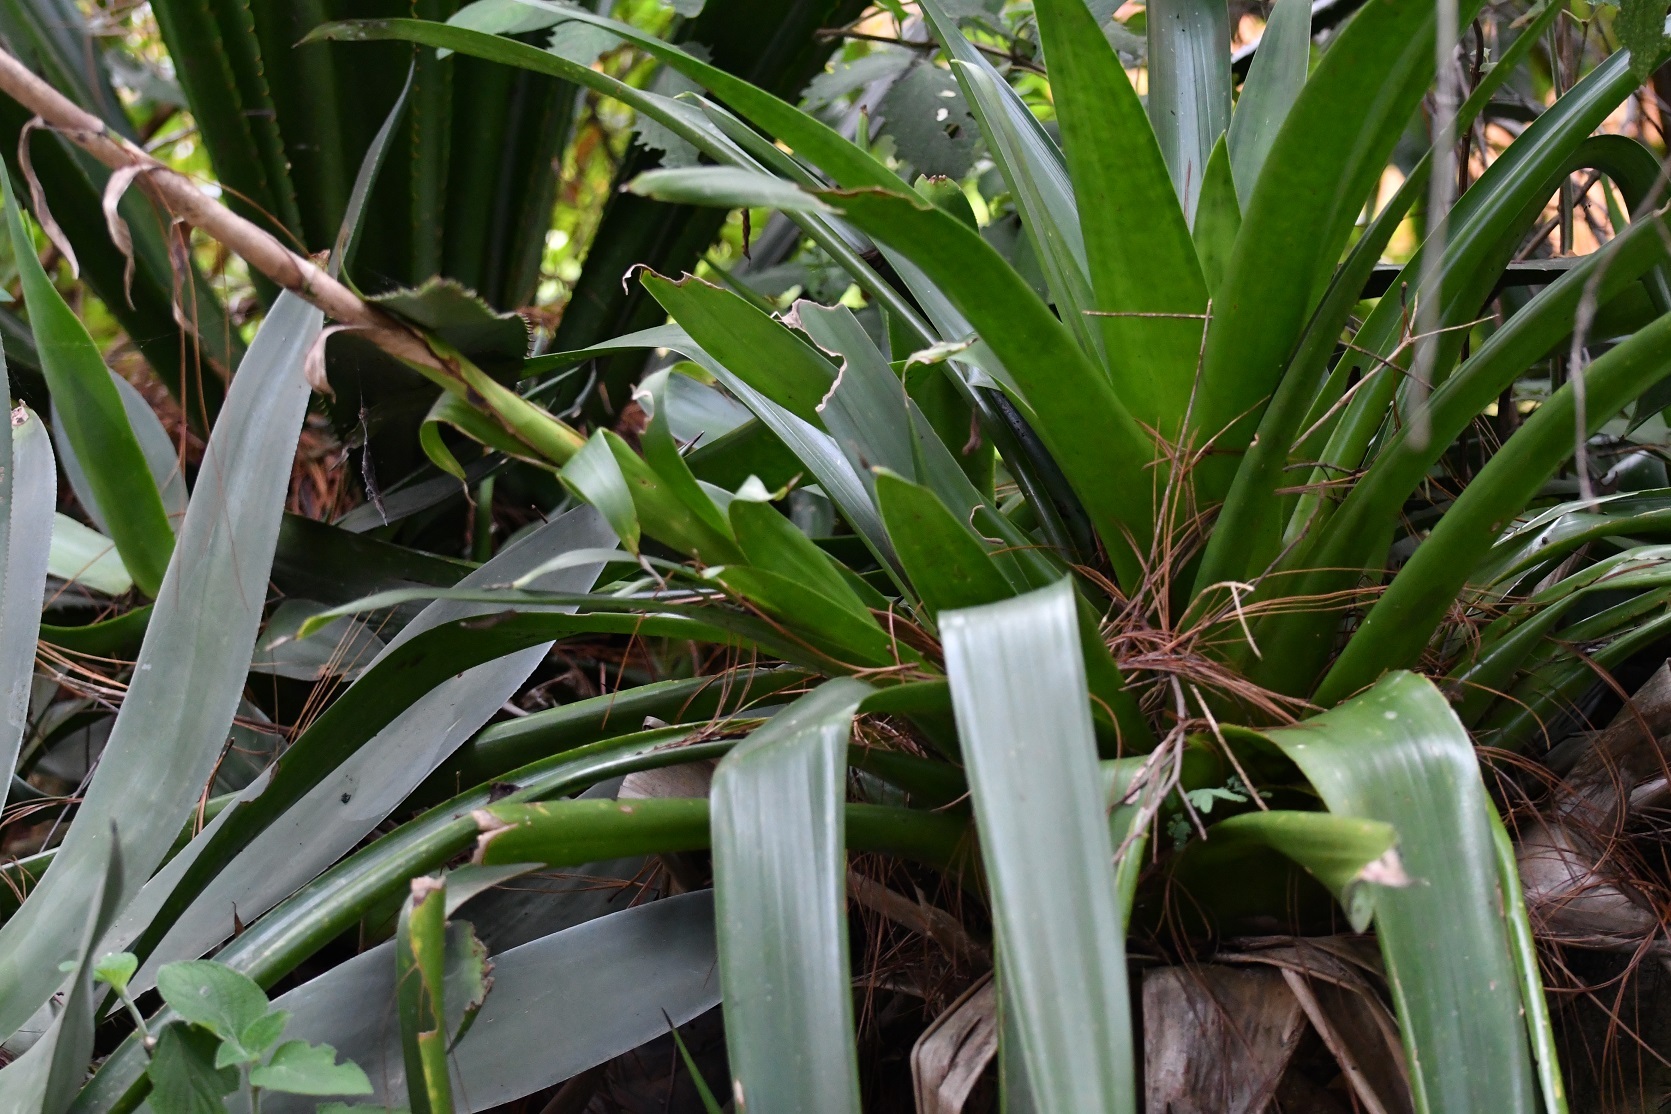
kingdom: Plantae
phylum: Tracheophyta
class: Liliopsida
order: Poales
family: Bromeliaceae
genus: Werauhia
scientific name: Werauhia werckleana
